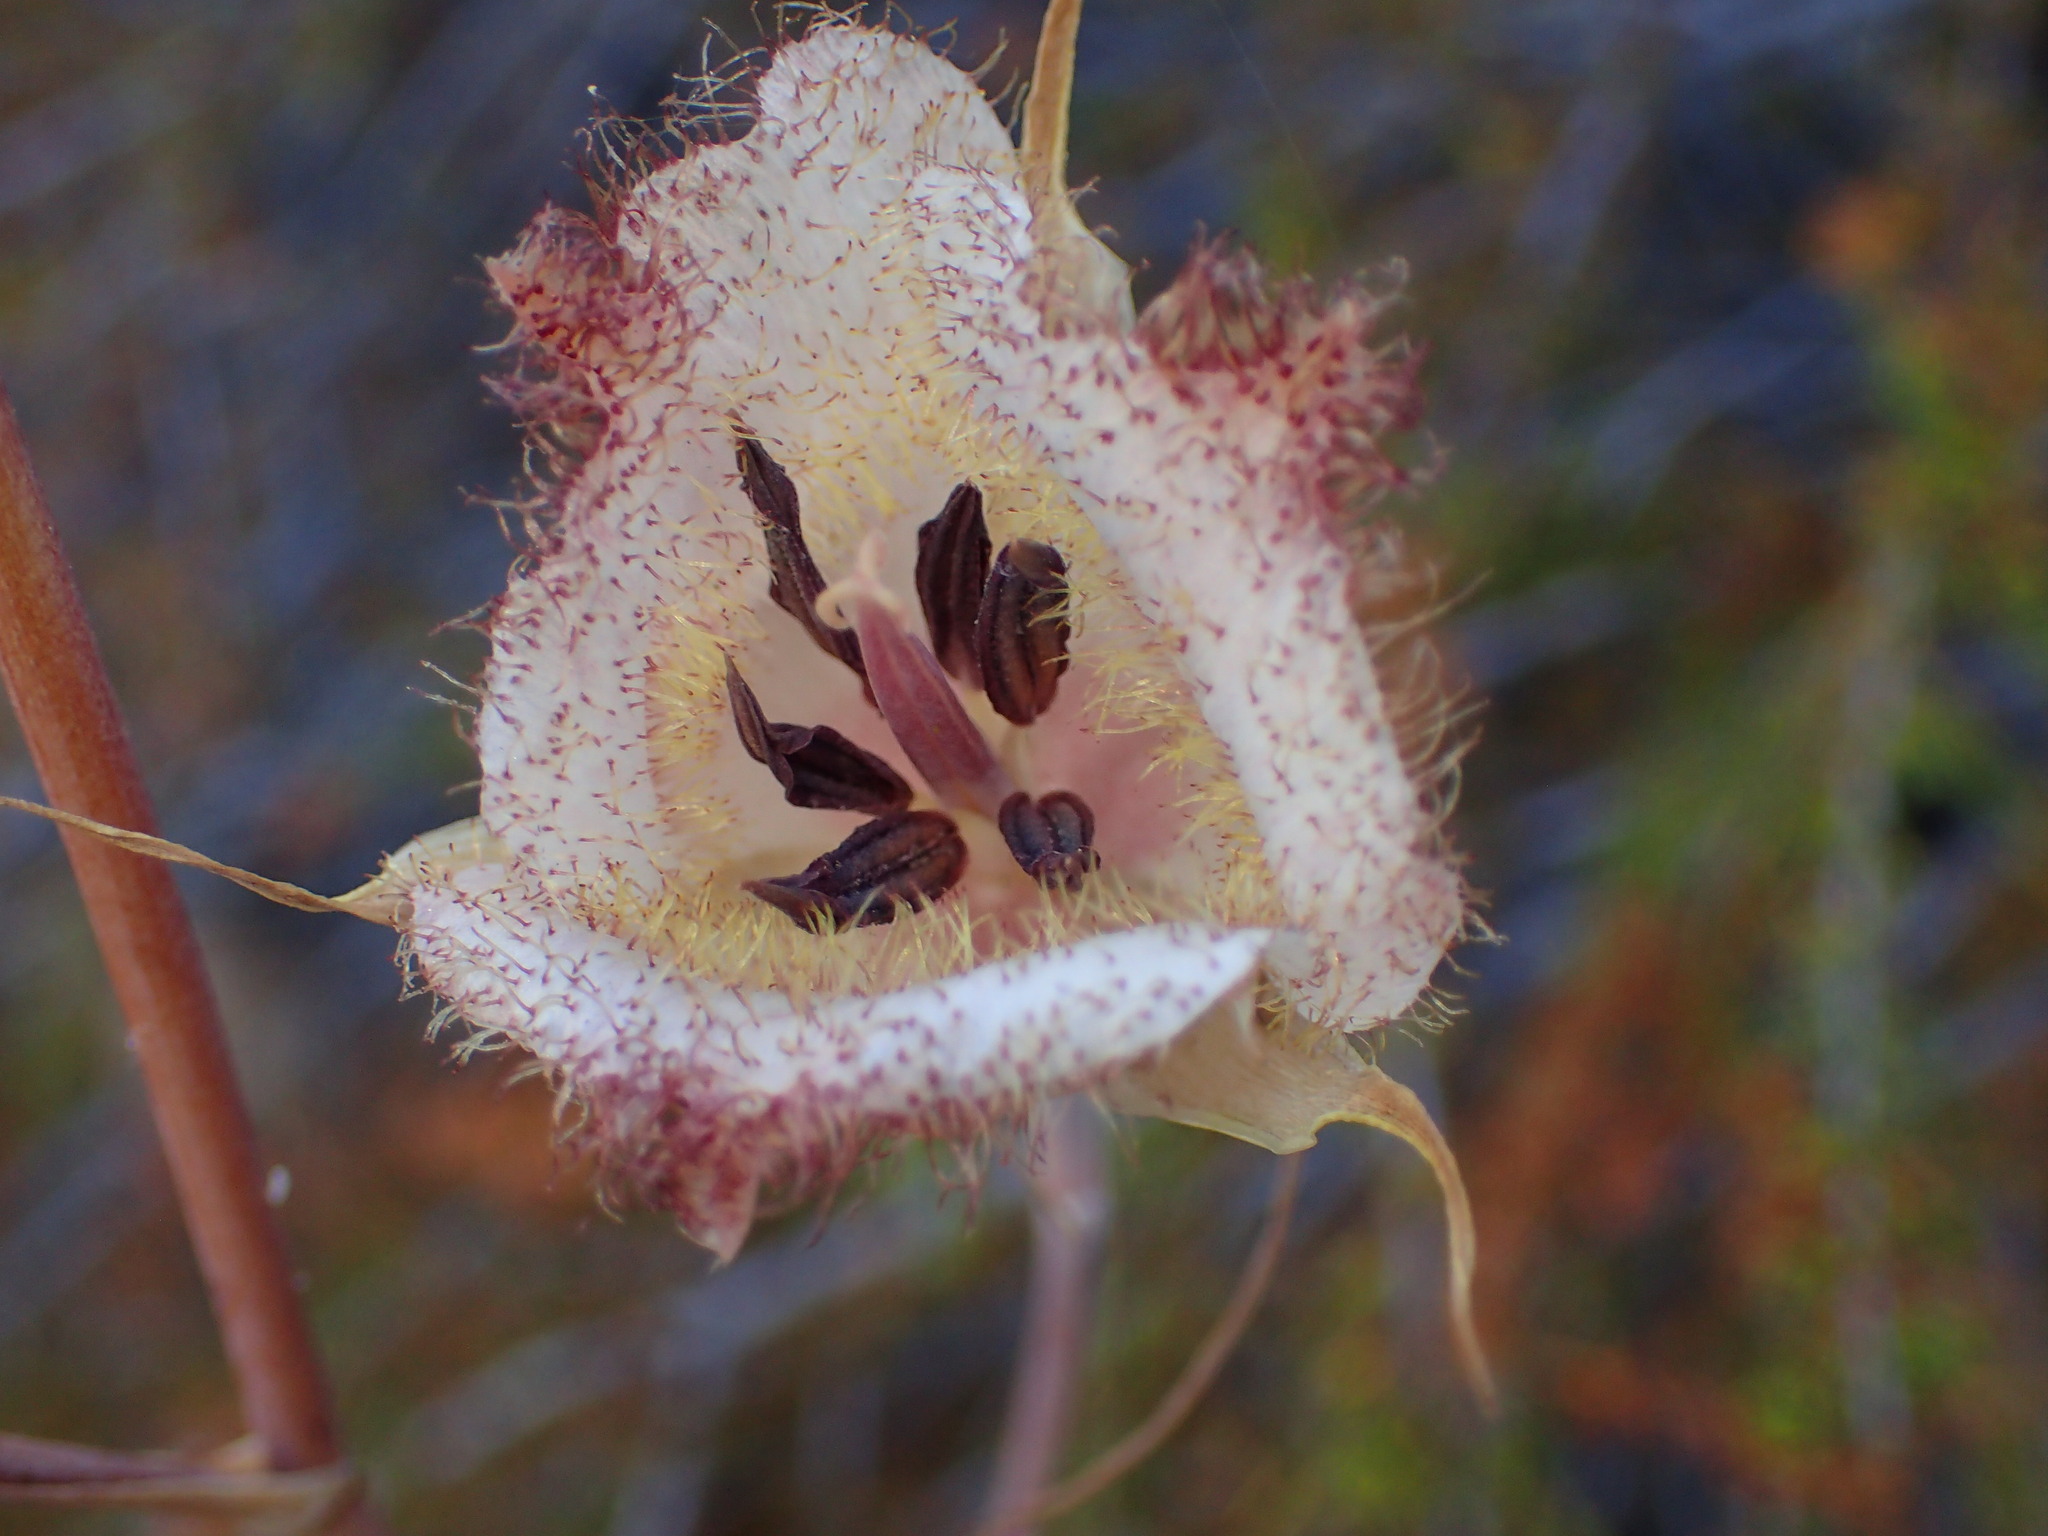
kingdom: Plantae
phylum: Tracheophyta
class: Liliopsida
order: Liliales
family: Liliaceae
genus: Calochortus
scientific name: Calochortus fimbriatus
